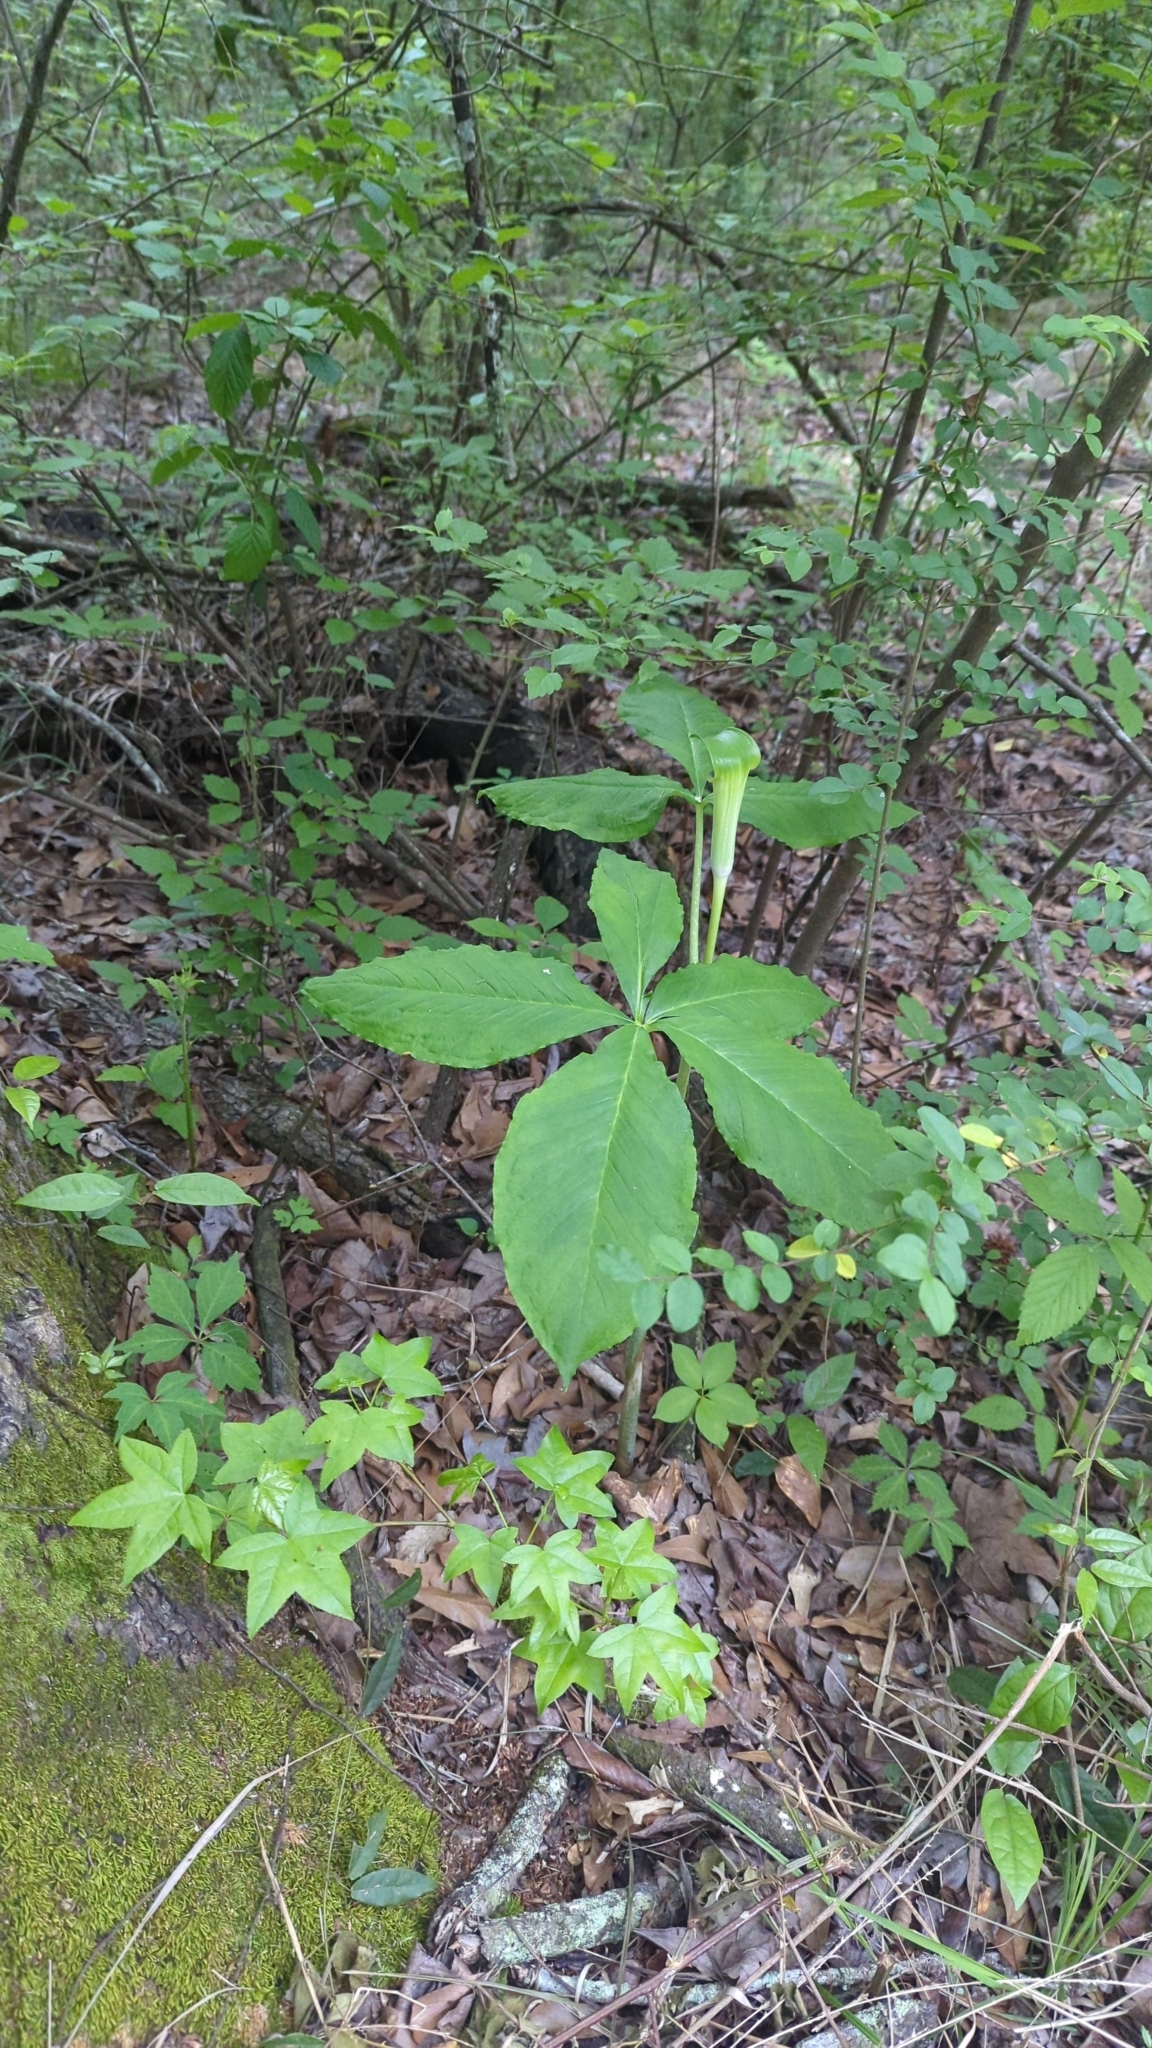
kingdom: Plantae
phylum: Tracheophyta
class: Liliopsida
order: Alismatales
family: Araceae
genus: Arisaema
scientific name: Arisaema quinatum
